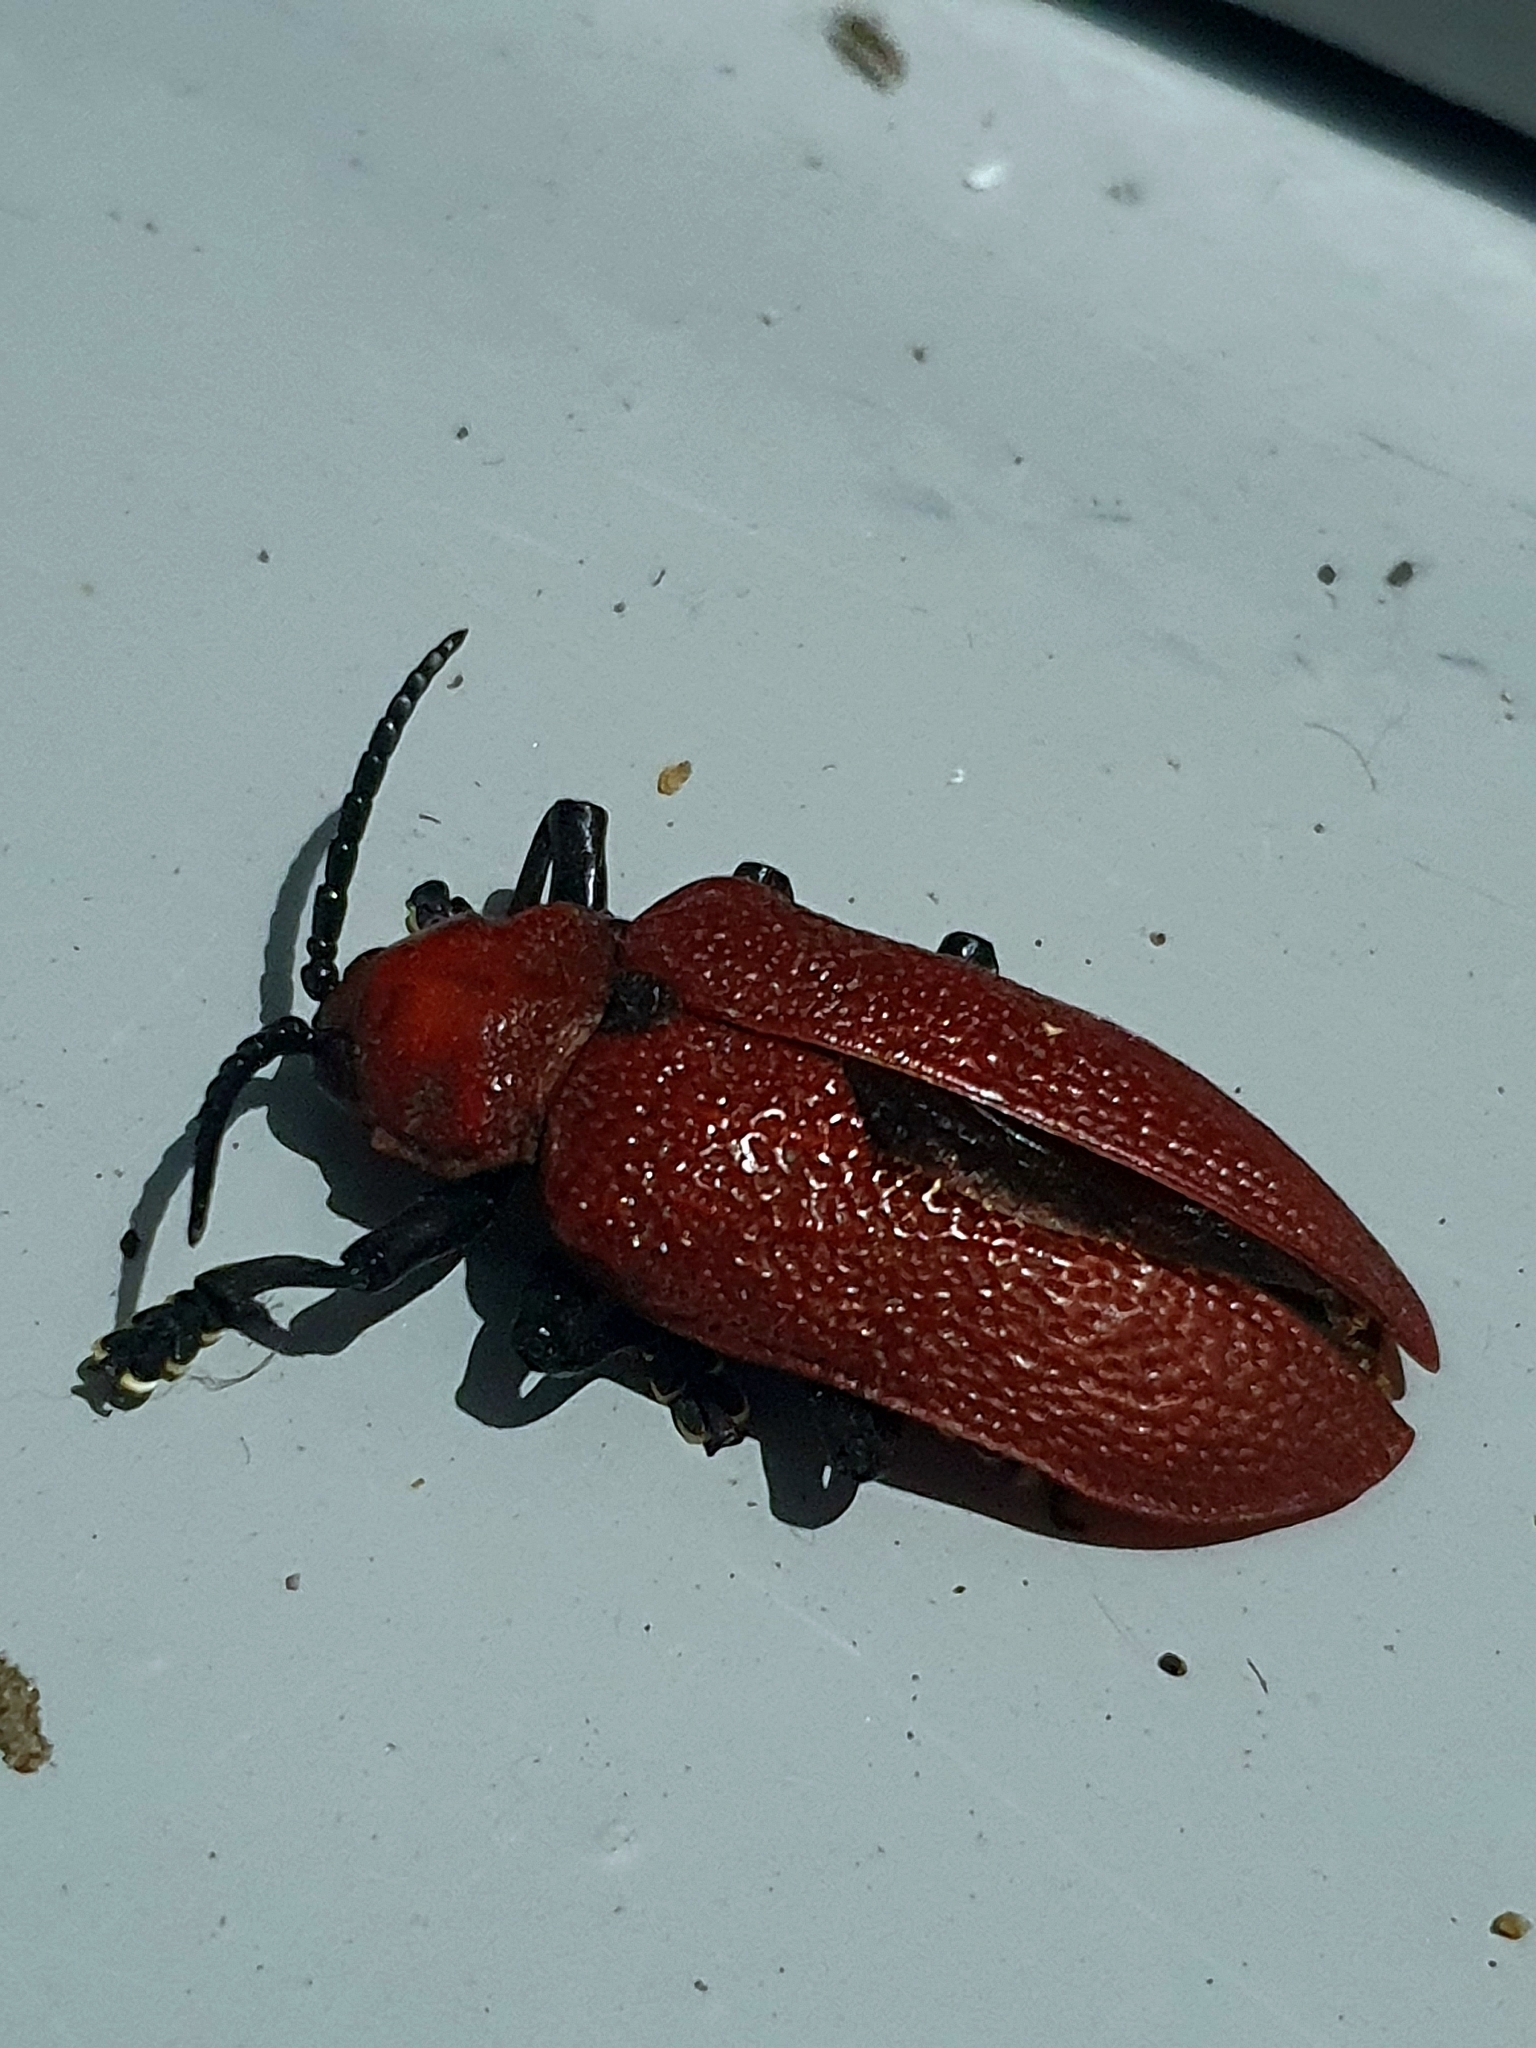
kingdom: Animalia
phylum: Arthropoda
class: Insecta
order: Coleoptera
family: Chrysomelidae
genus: Coraliomela
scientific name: Coraliomela brunnea
